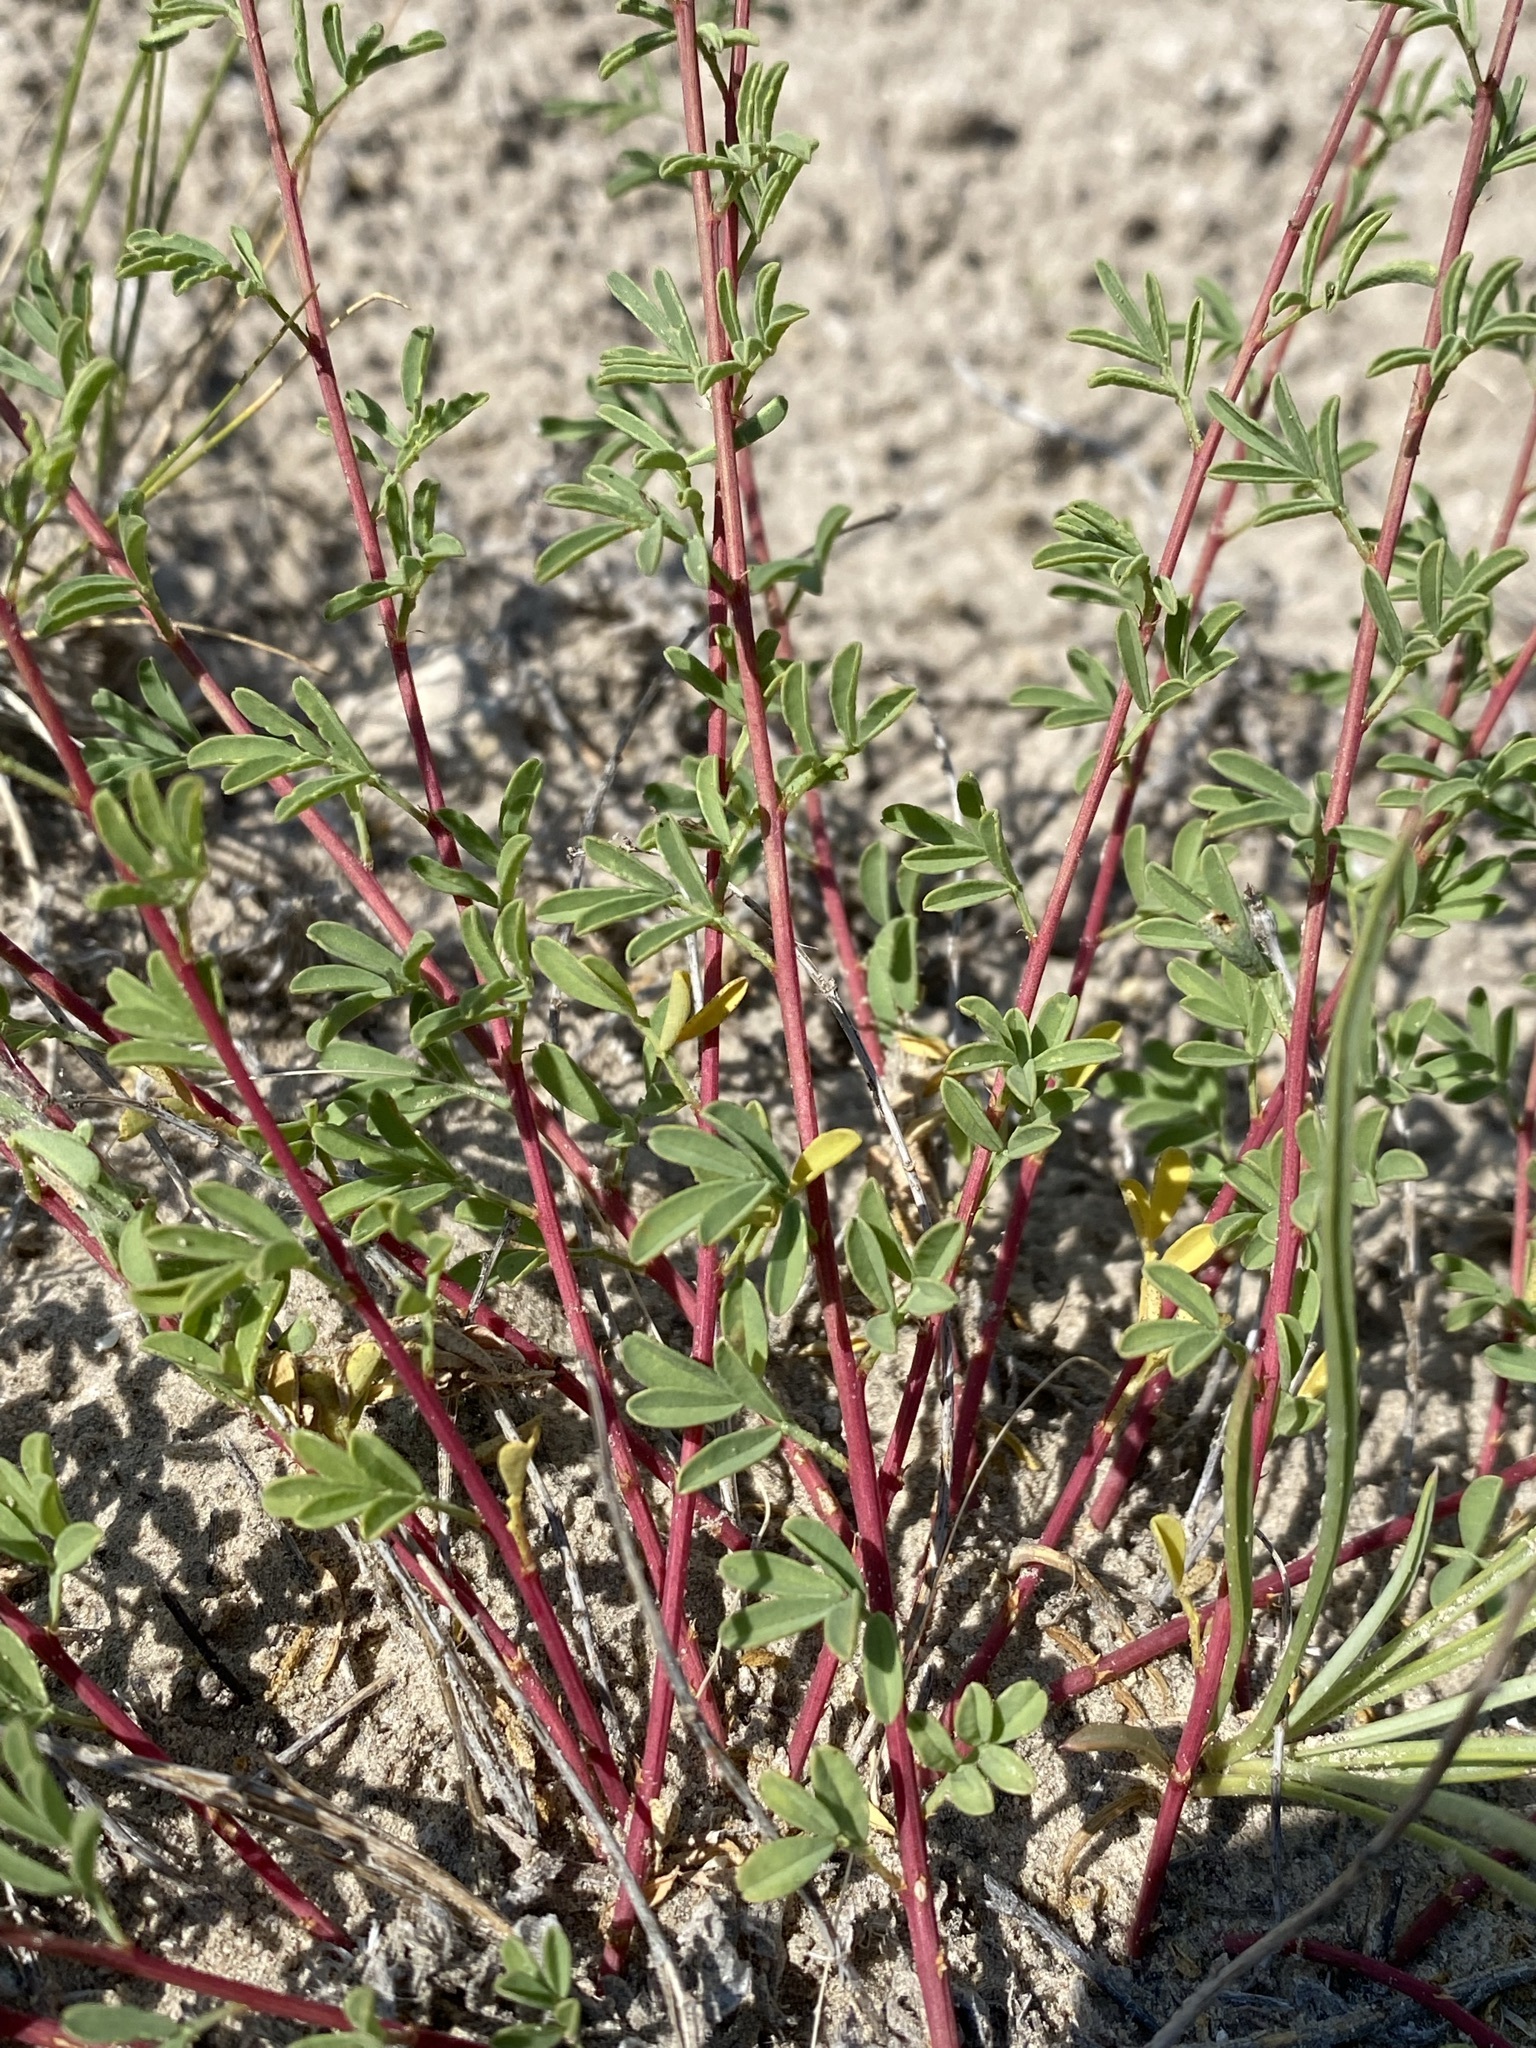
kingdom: Plantae
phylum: Tracheophyta
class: Magnoliopsida
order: Fabales
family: Fabaceae
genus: Dalea
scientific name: Dalea candida
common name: White prairie-clover
